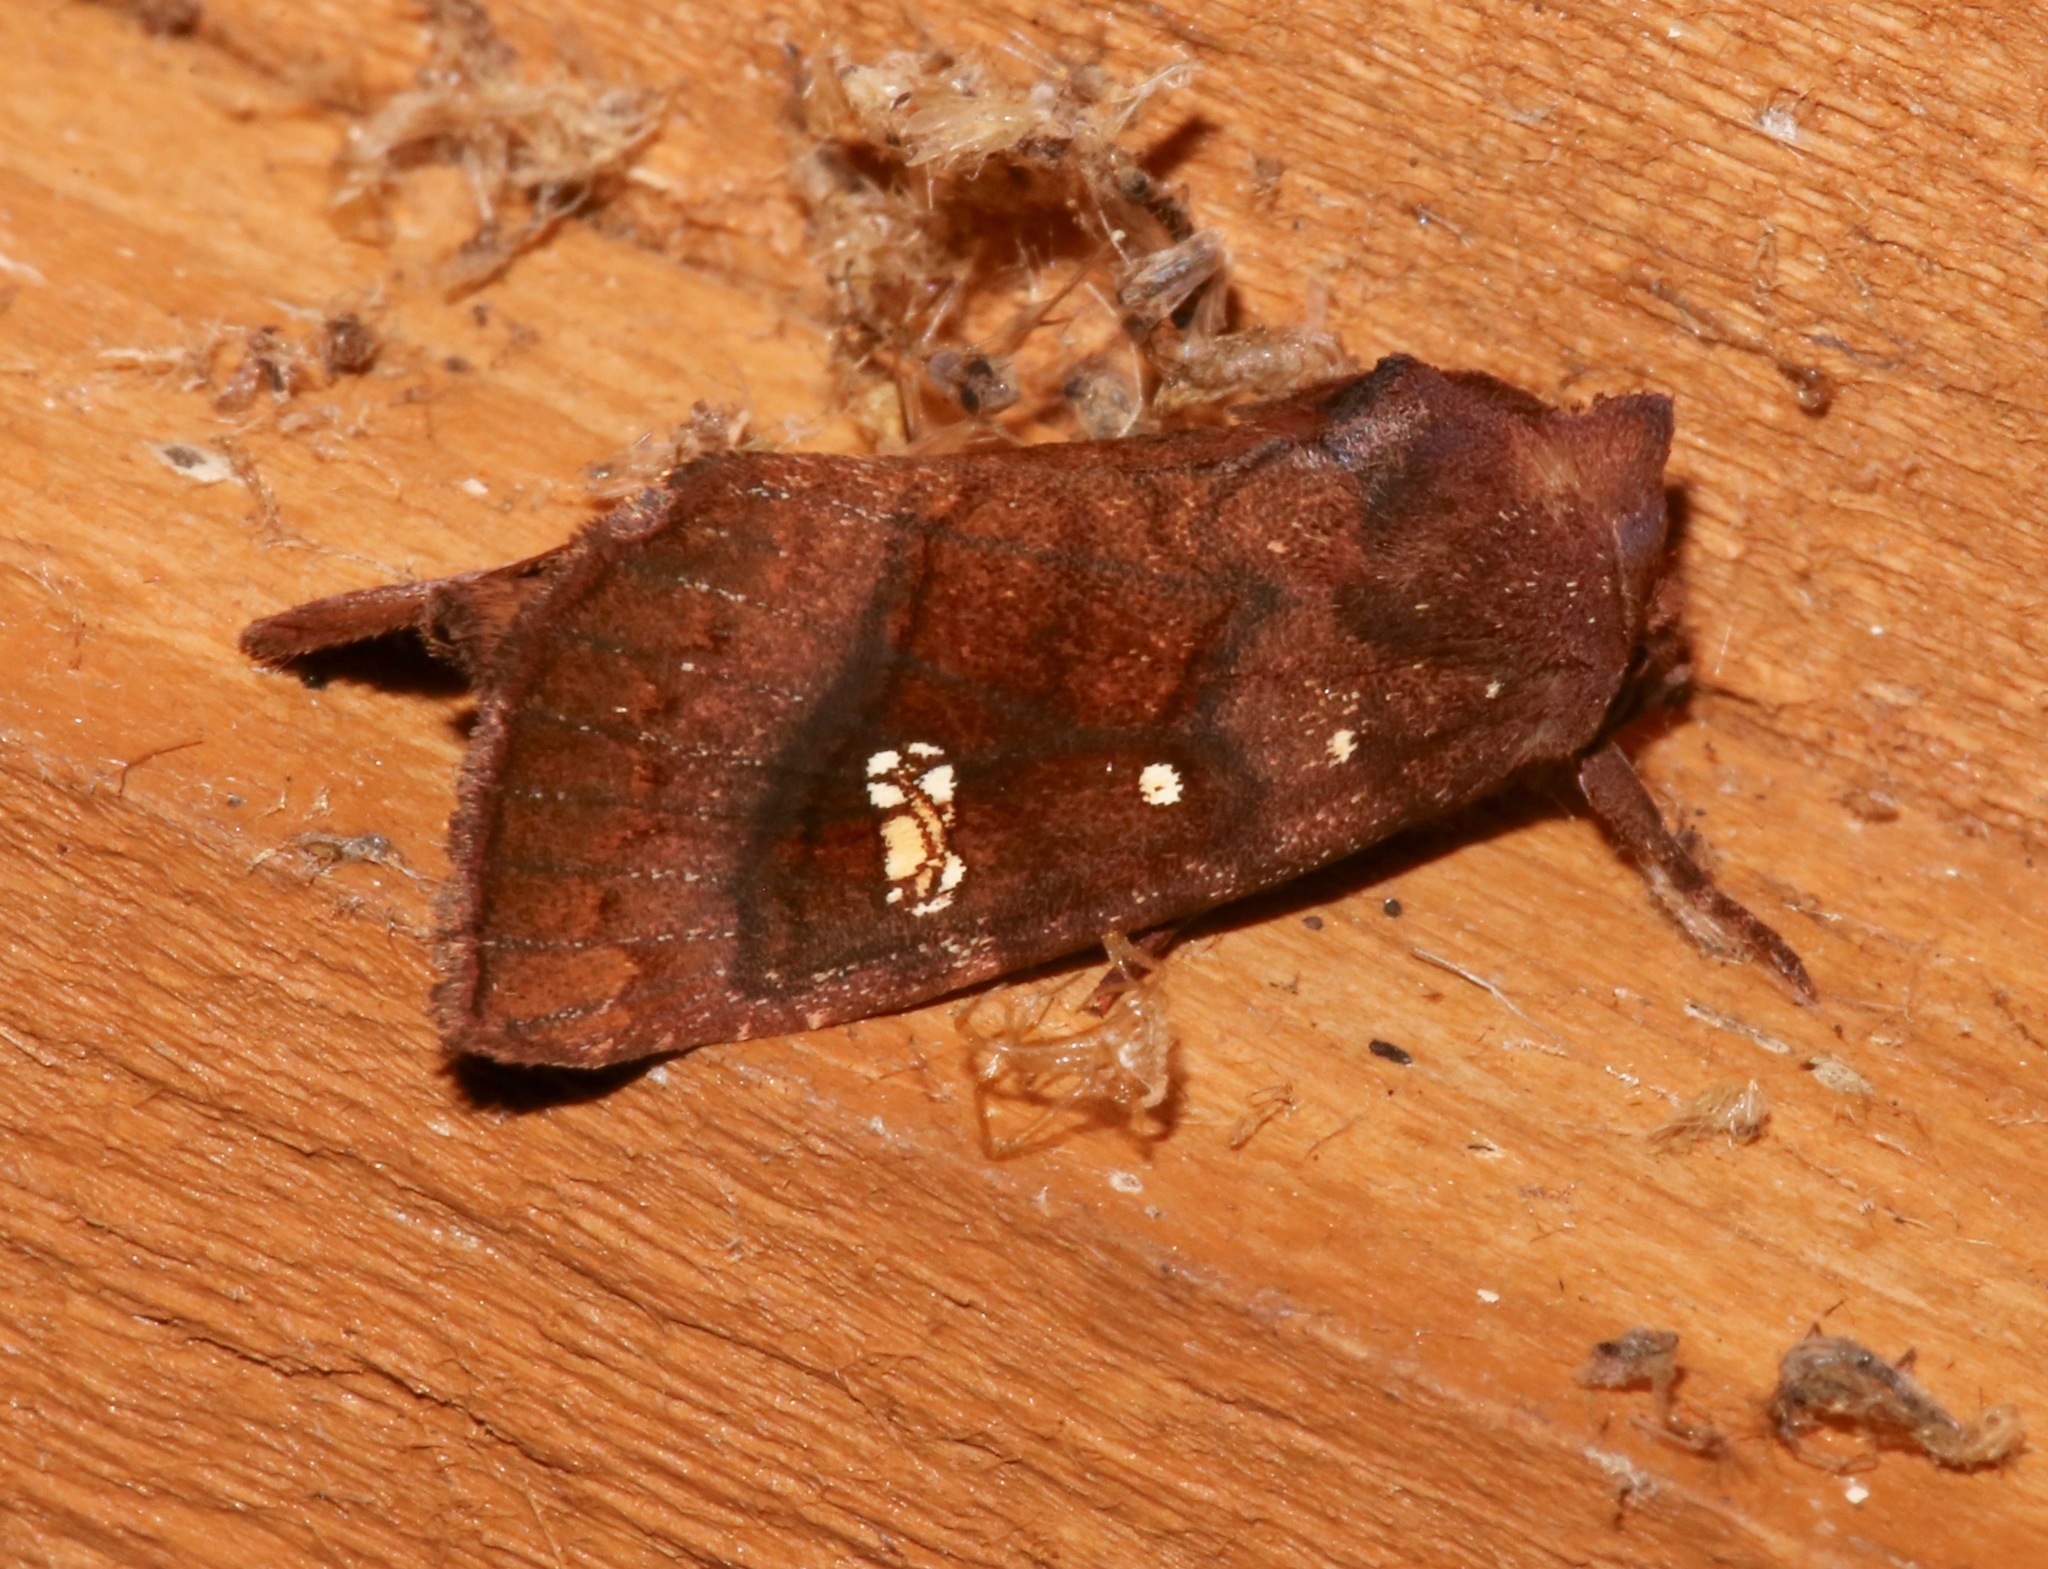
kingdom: Animalia
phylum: Arthropoda
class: Insecta
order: Lepidoptera
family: Noctuidae
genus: Parapamea
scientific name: Parapamea buffaloensis
